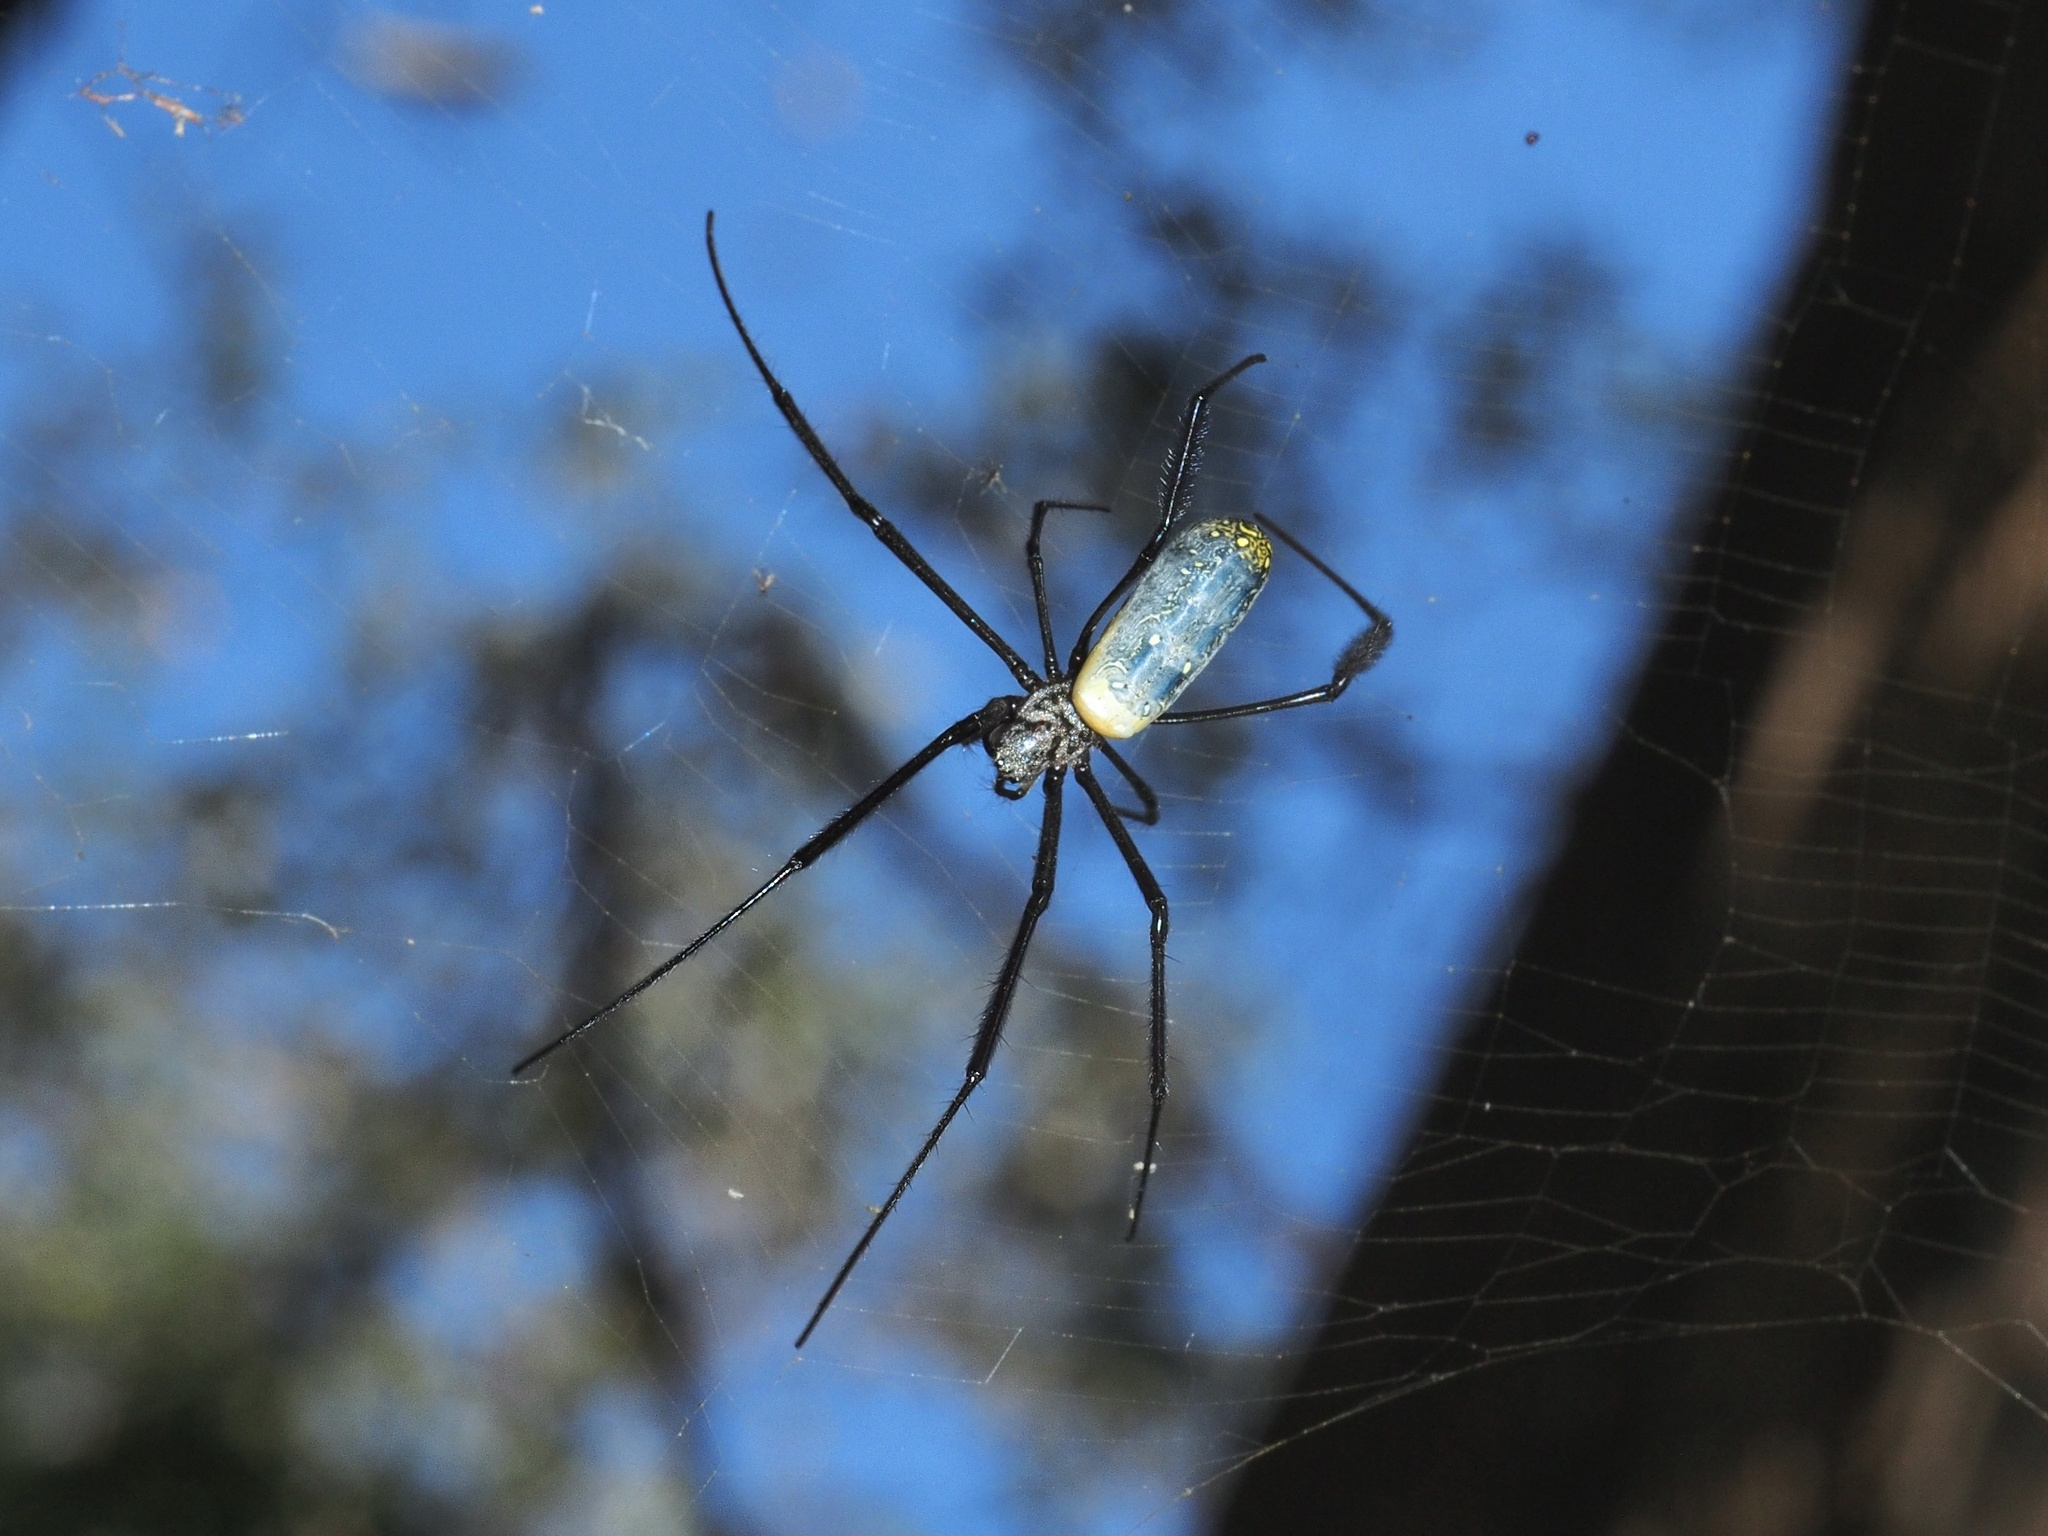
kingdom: Animalia
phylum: Arthropoda
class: Arachnida
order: Araneae
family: Araneidae
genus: Trichonephila
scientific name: Trichonephila fenestrata
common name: Hairy golden orb weaver
